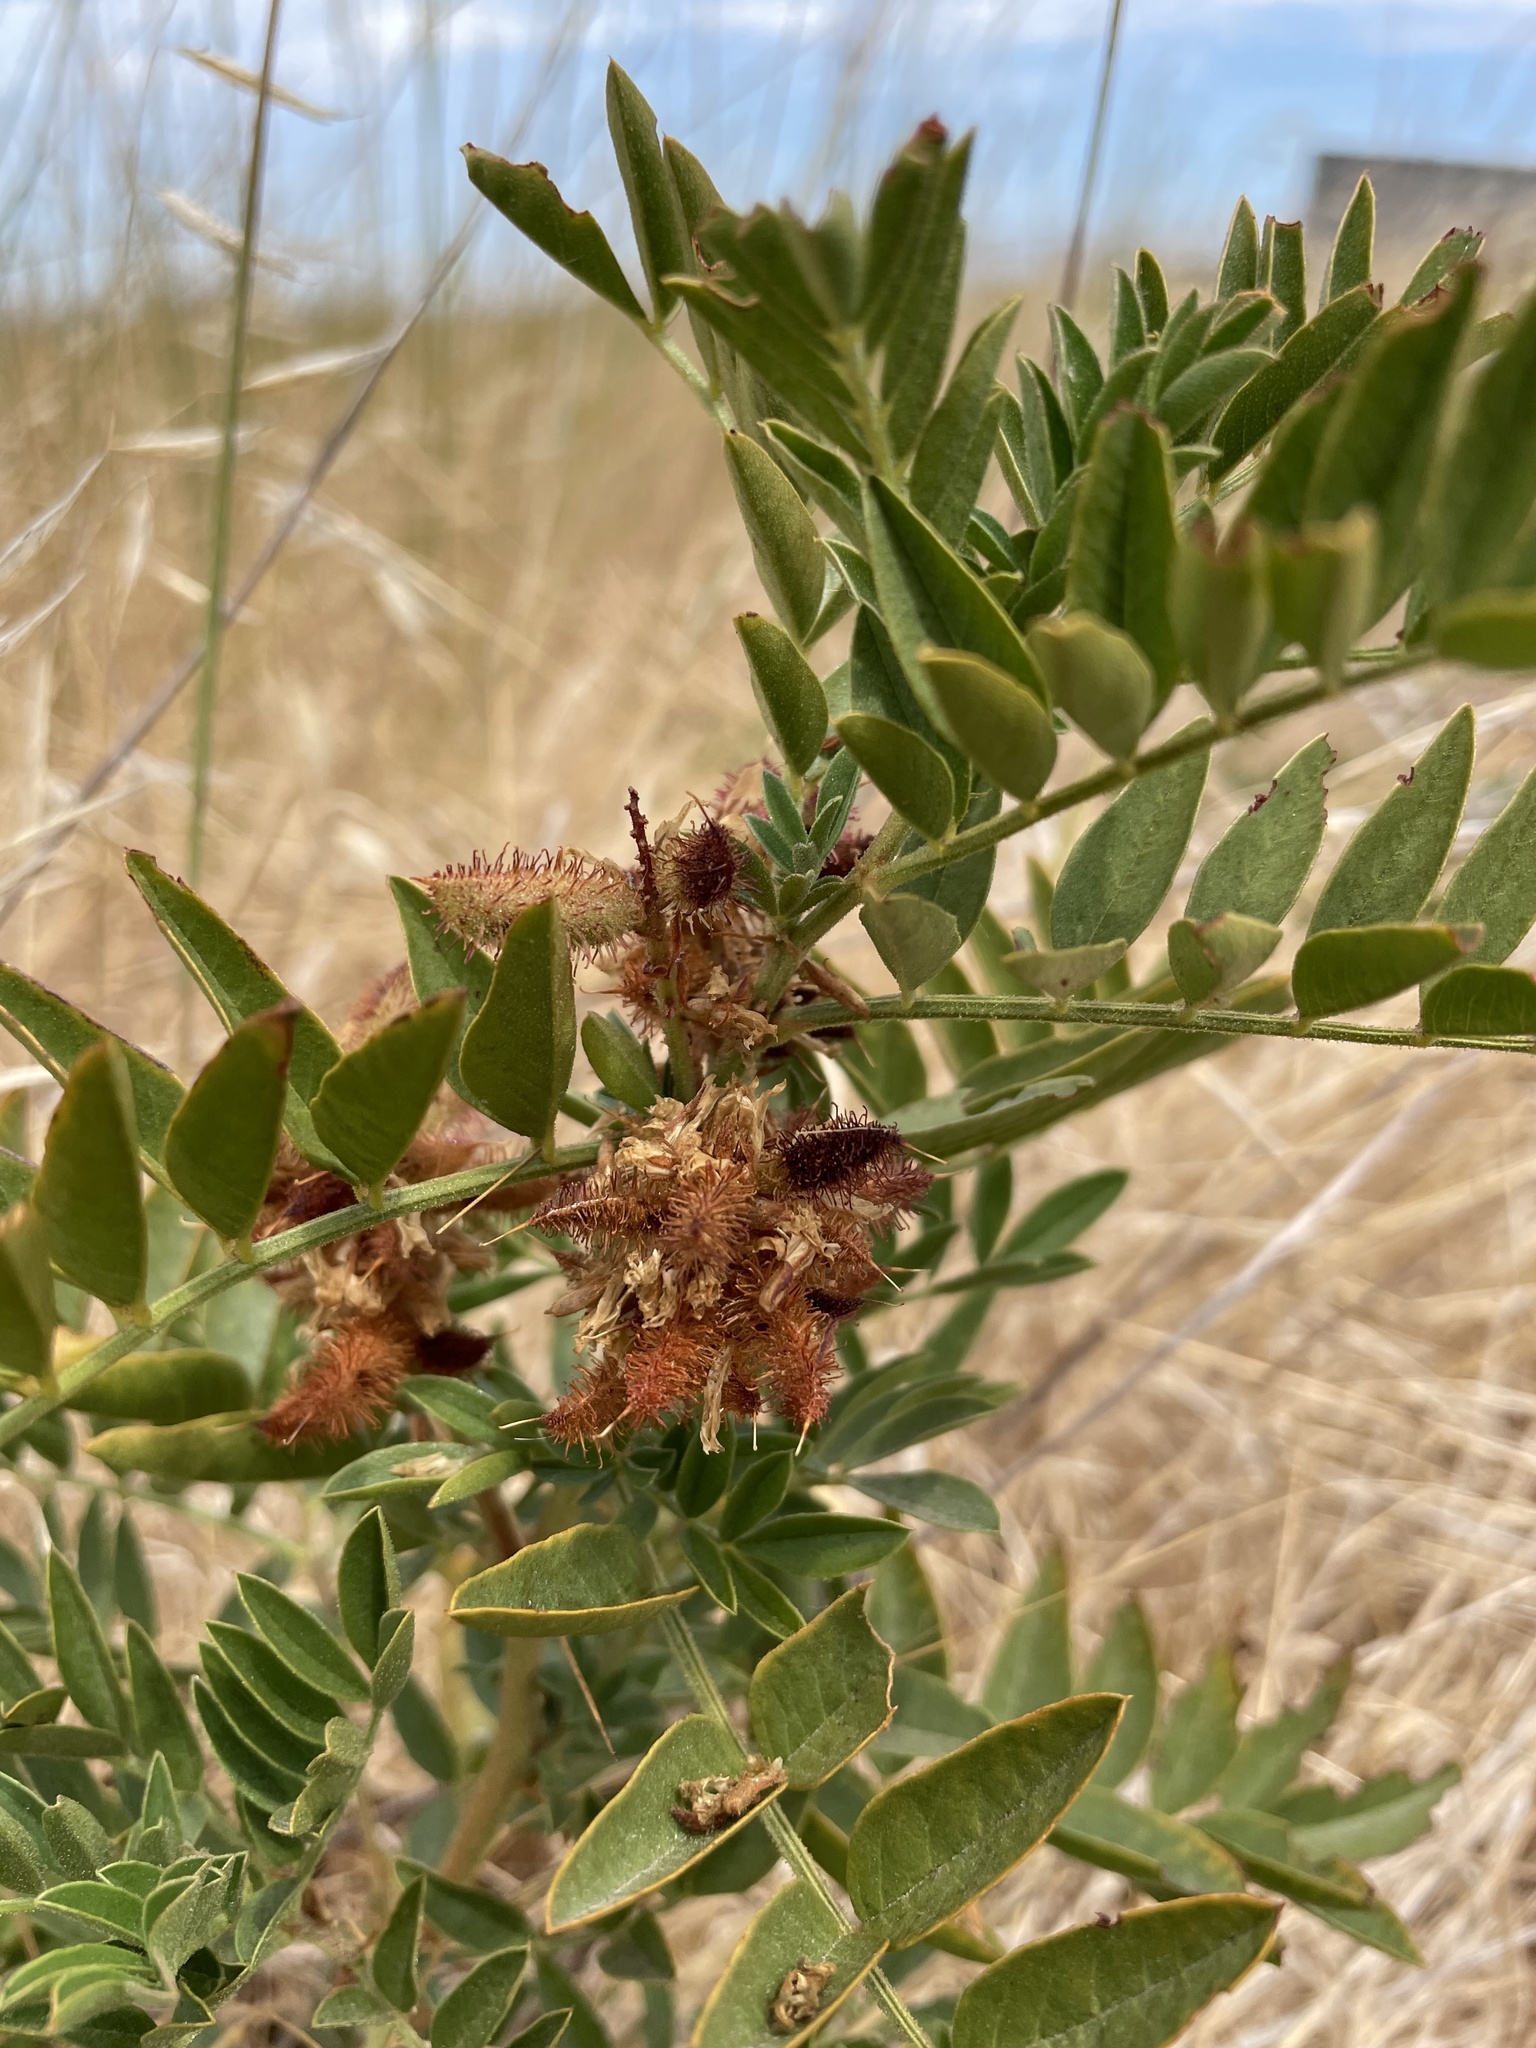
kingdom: Plantae
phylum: Tracheophyta
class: Magnoliopsida
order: Fabales
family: Fabaceae
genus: Glycyrrhiza
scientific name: Glycyrrhiza lepidota
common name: American liquorice
